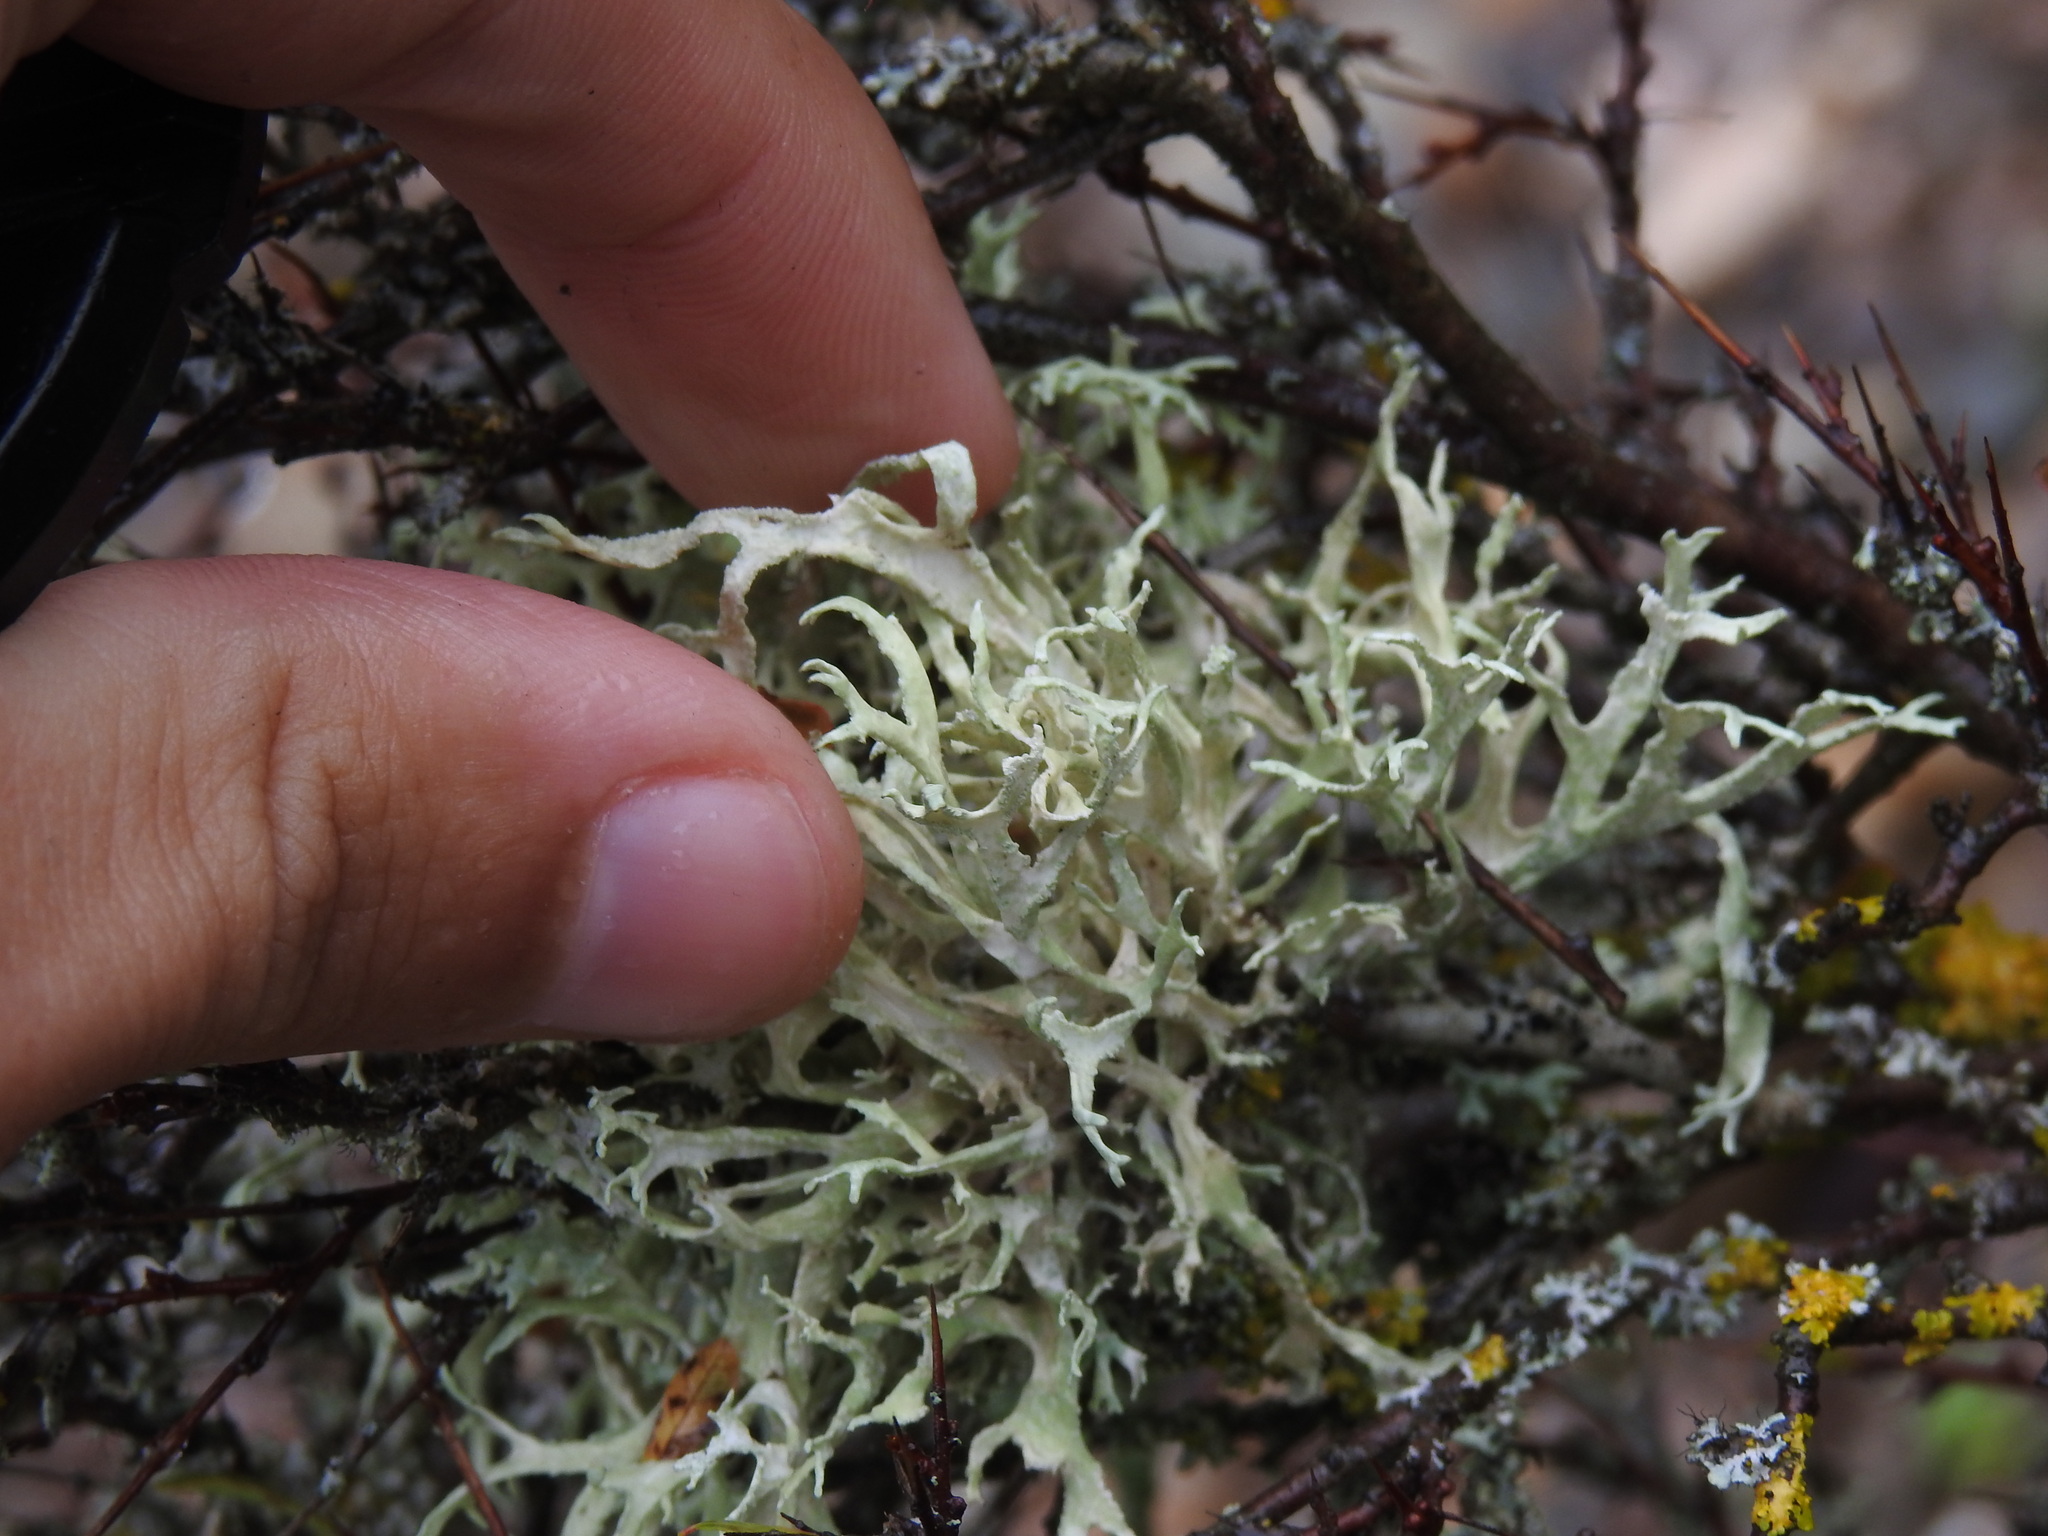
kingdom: Fungi
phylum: Ascomycota
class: Lecanoromycetes
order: Lecanorales
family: Parmeliaceae
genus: Evernia
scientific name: Evernia prunastri
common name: Oak moss
